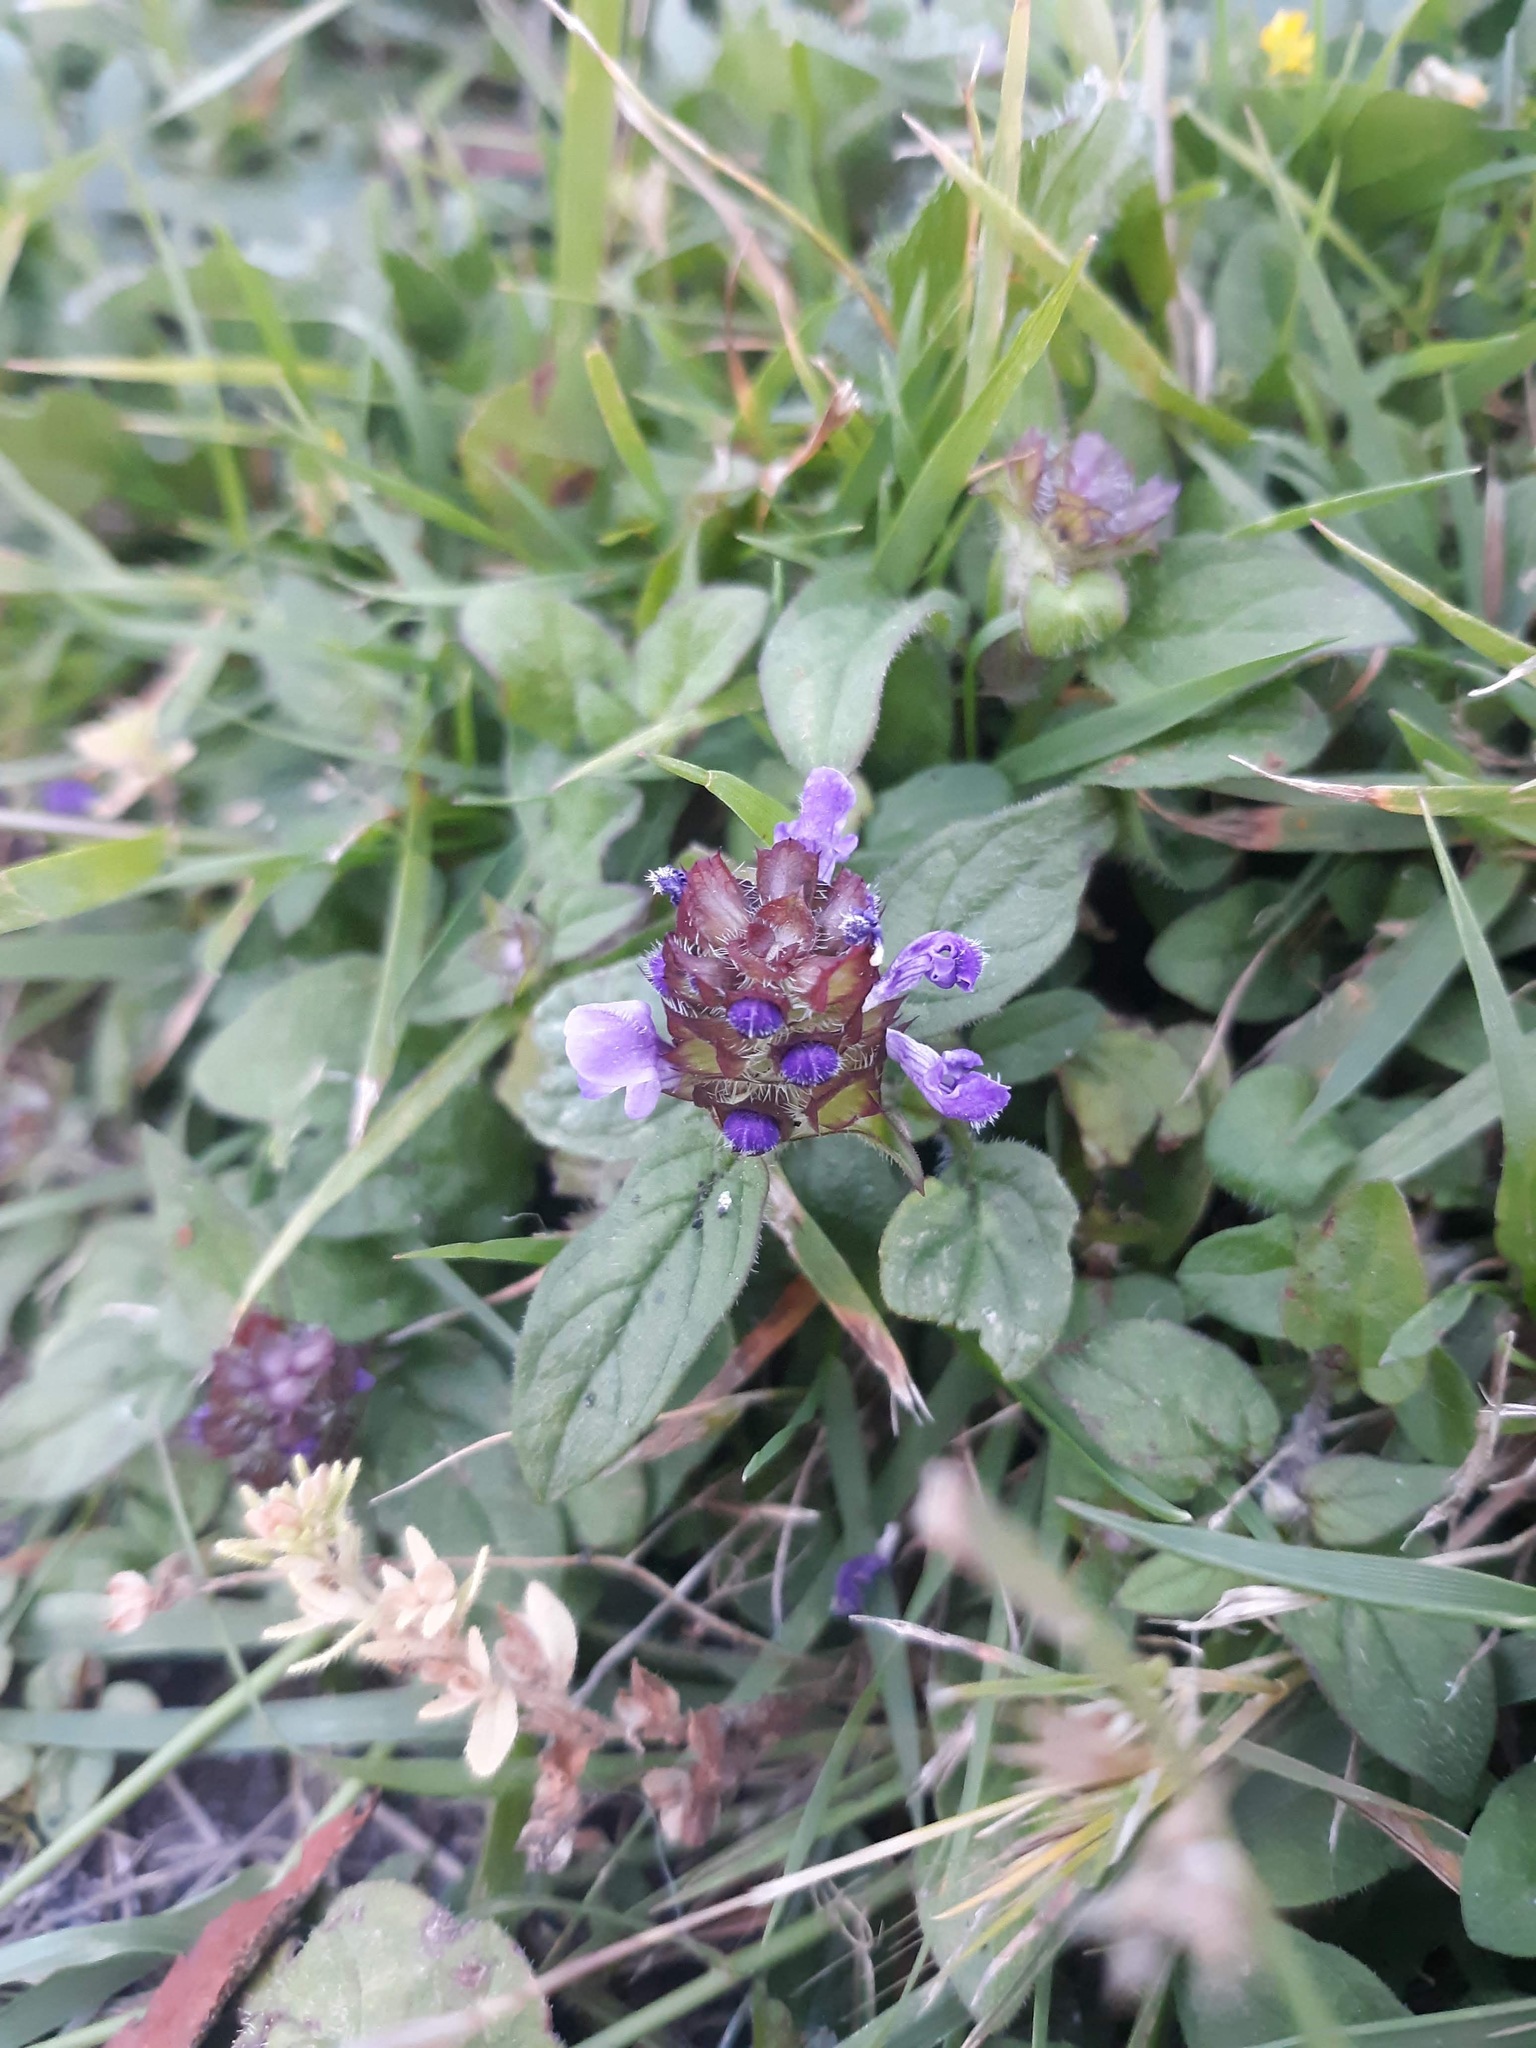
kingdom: Plantae
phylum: Tracheophyta
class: Magnoliopsida
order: Lamiales
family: Lamiaceae
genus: Prunella
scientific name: Prunella vulgaris
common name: Heal-all
